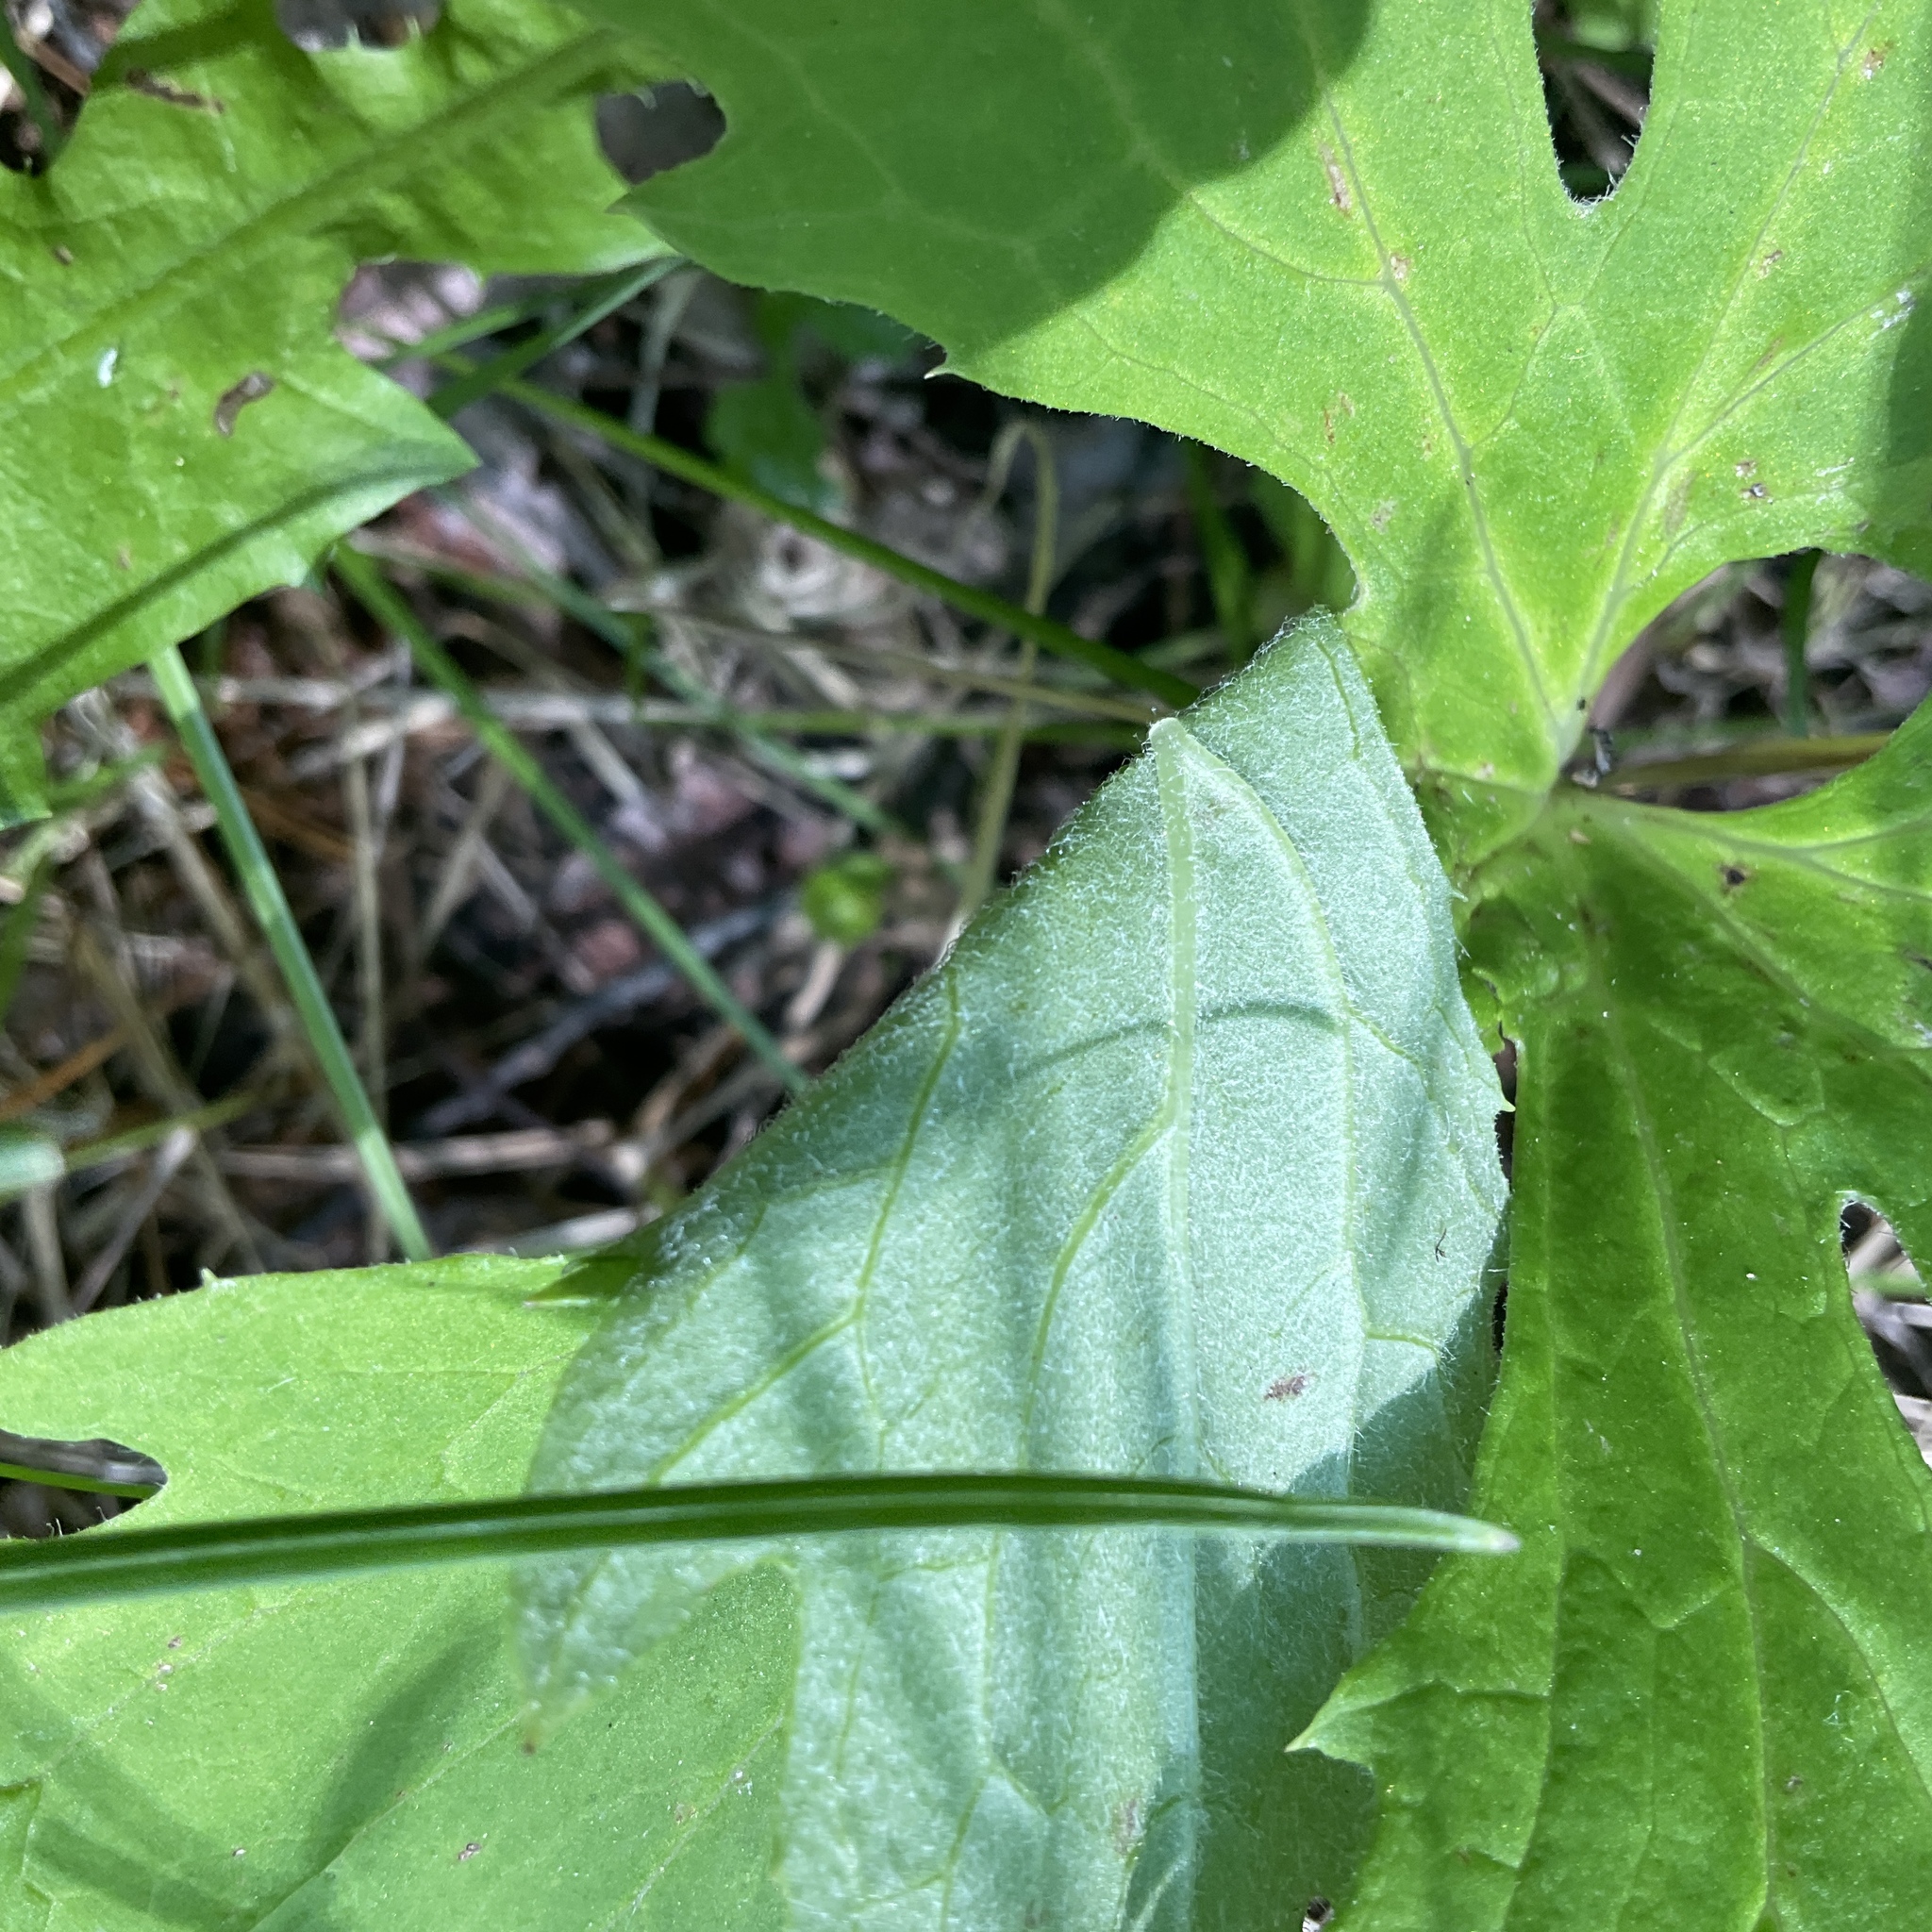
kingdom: Plantae
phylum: Tracheophyta
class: Magnoliopsida
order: Asterales
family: Asteraceae
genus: Petasites
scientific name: Petasites frigidus
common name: Arctic butterbur
